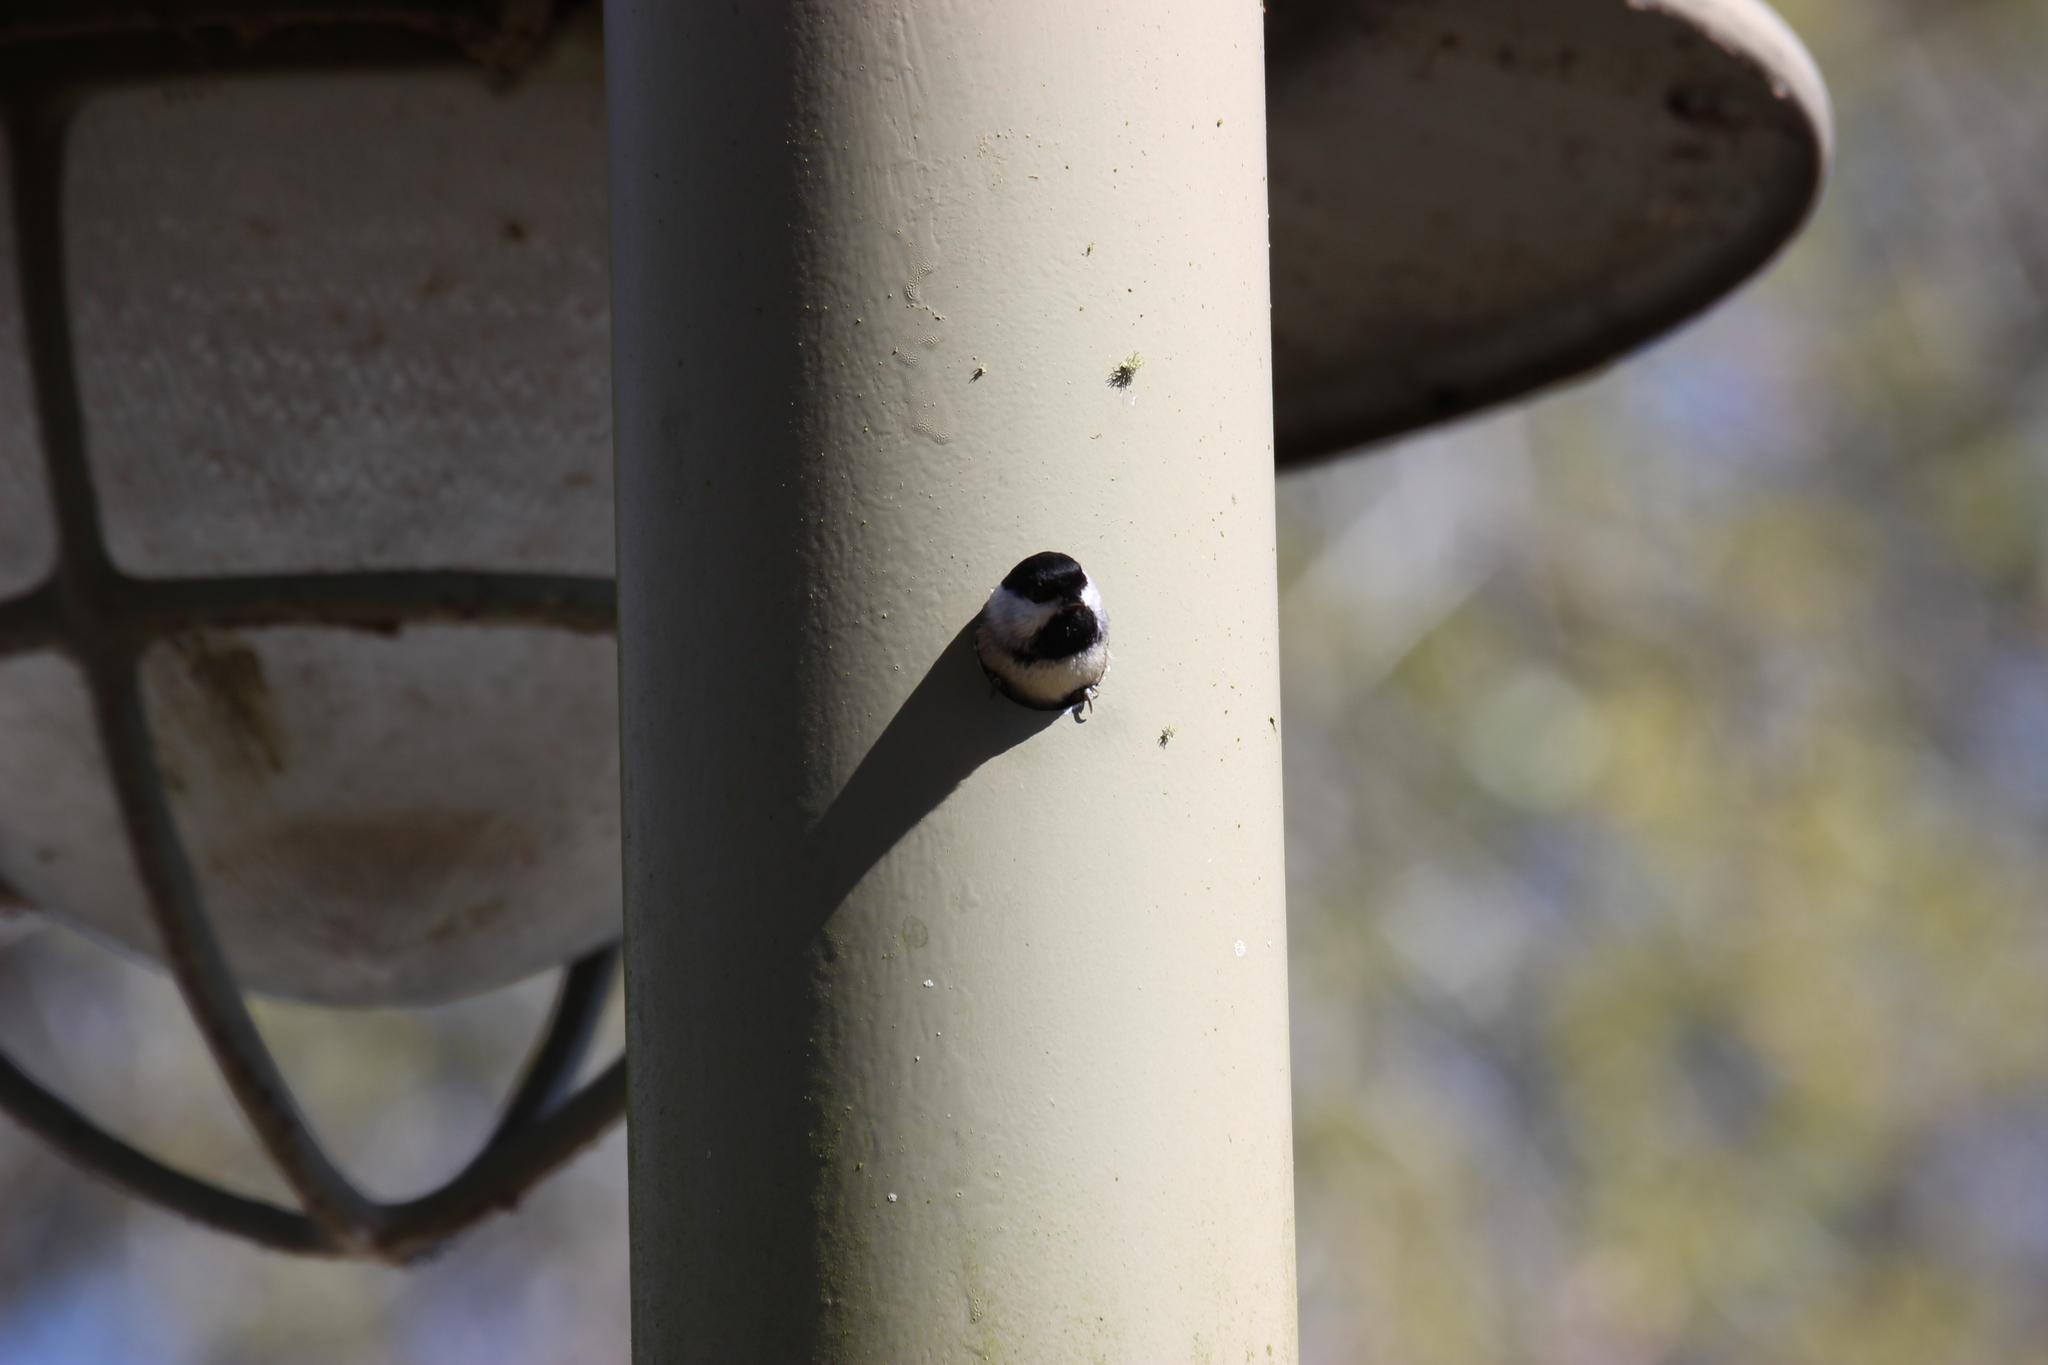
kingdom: Animalia
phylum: Chordata
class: Aves
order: Passeriformes
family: Paridae
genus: Poecile
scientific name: Poecile carolinensis
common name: Carolina chickadee
